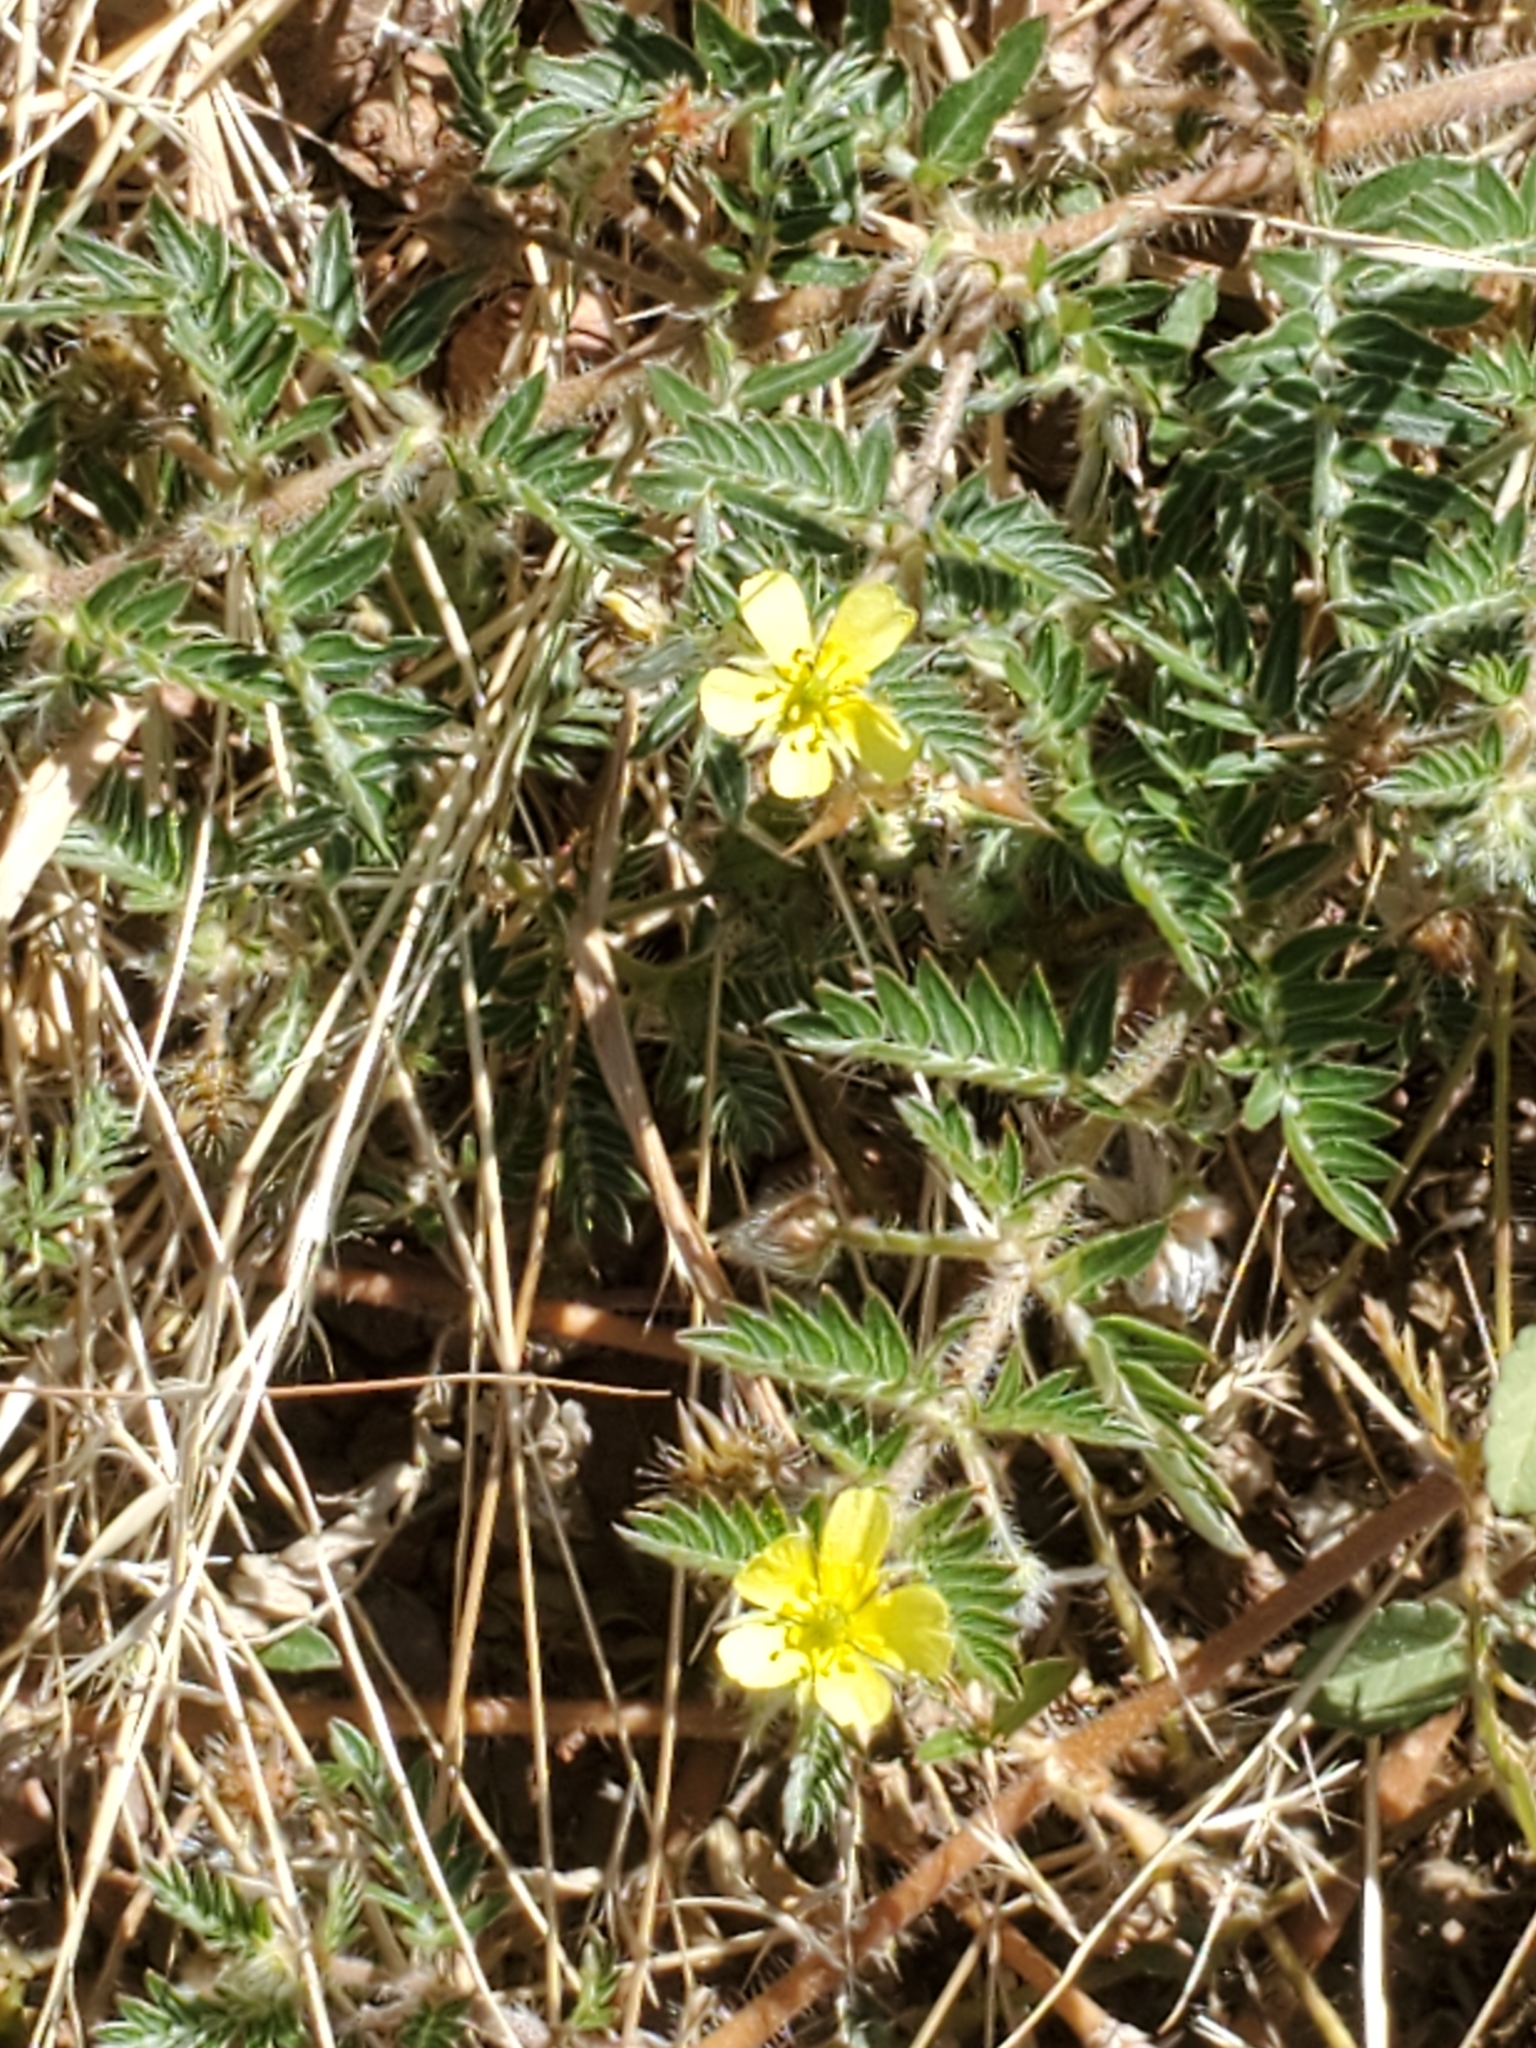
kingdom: Plantae
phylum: Tracheophyta
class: Magnoliopsida
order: Zygophyllales
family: Zygophyllaceae
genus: Tribulus
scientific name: Tribulus terrestris
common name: Puncturevine
